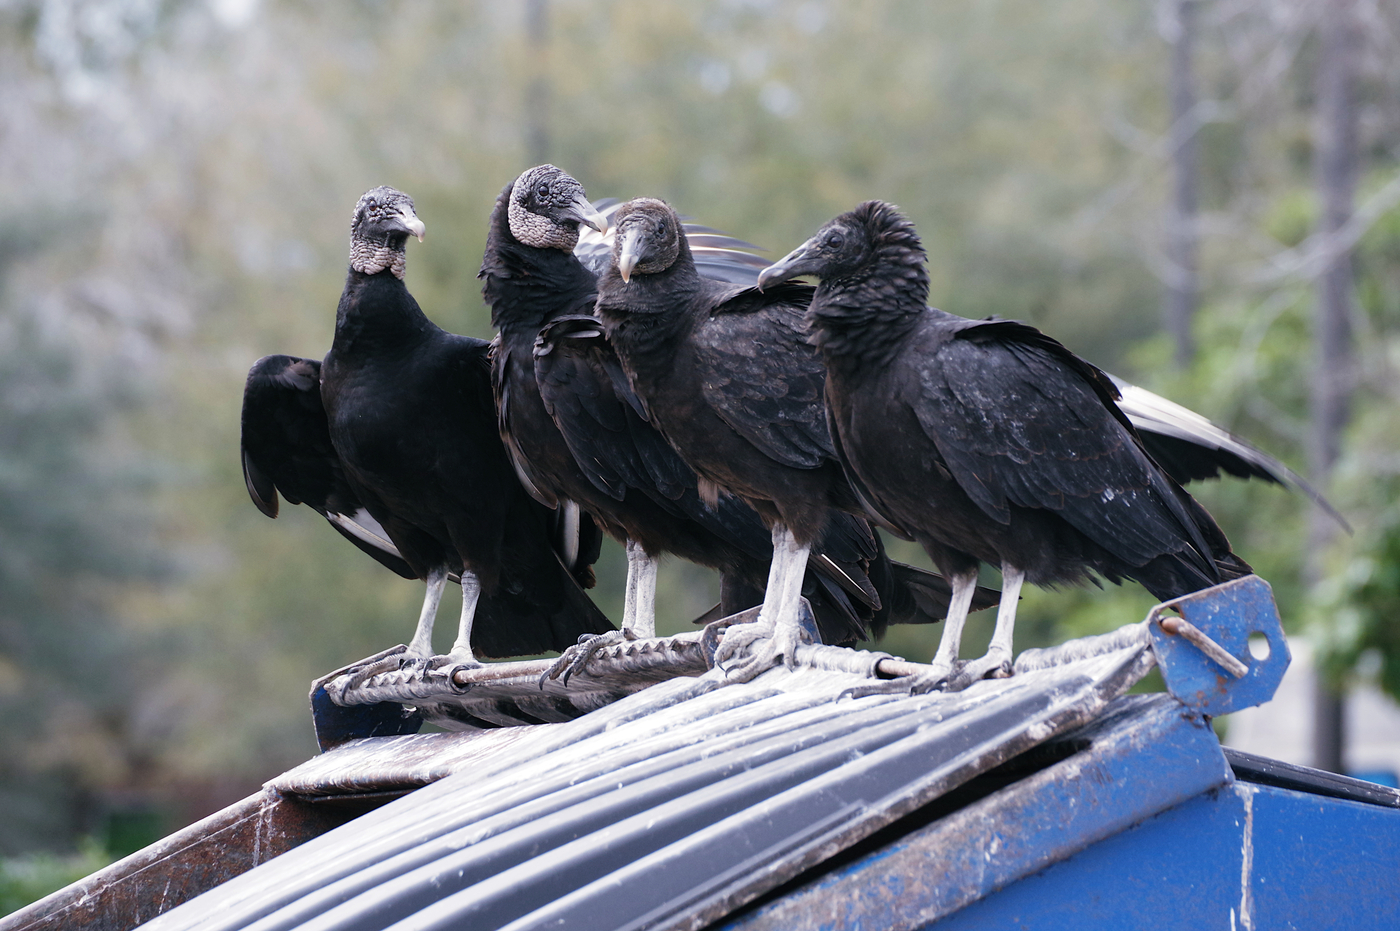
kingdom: Animalia
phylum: Chordata
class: Aves
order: Accipitriformes
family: Cathartidae
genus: Coragyps
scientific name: Coragyps atratus
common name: Black vulture
